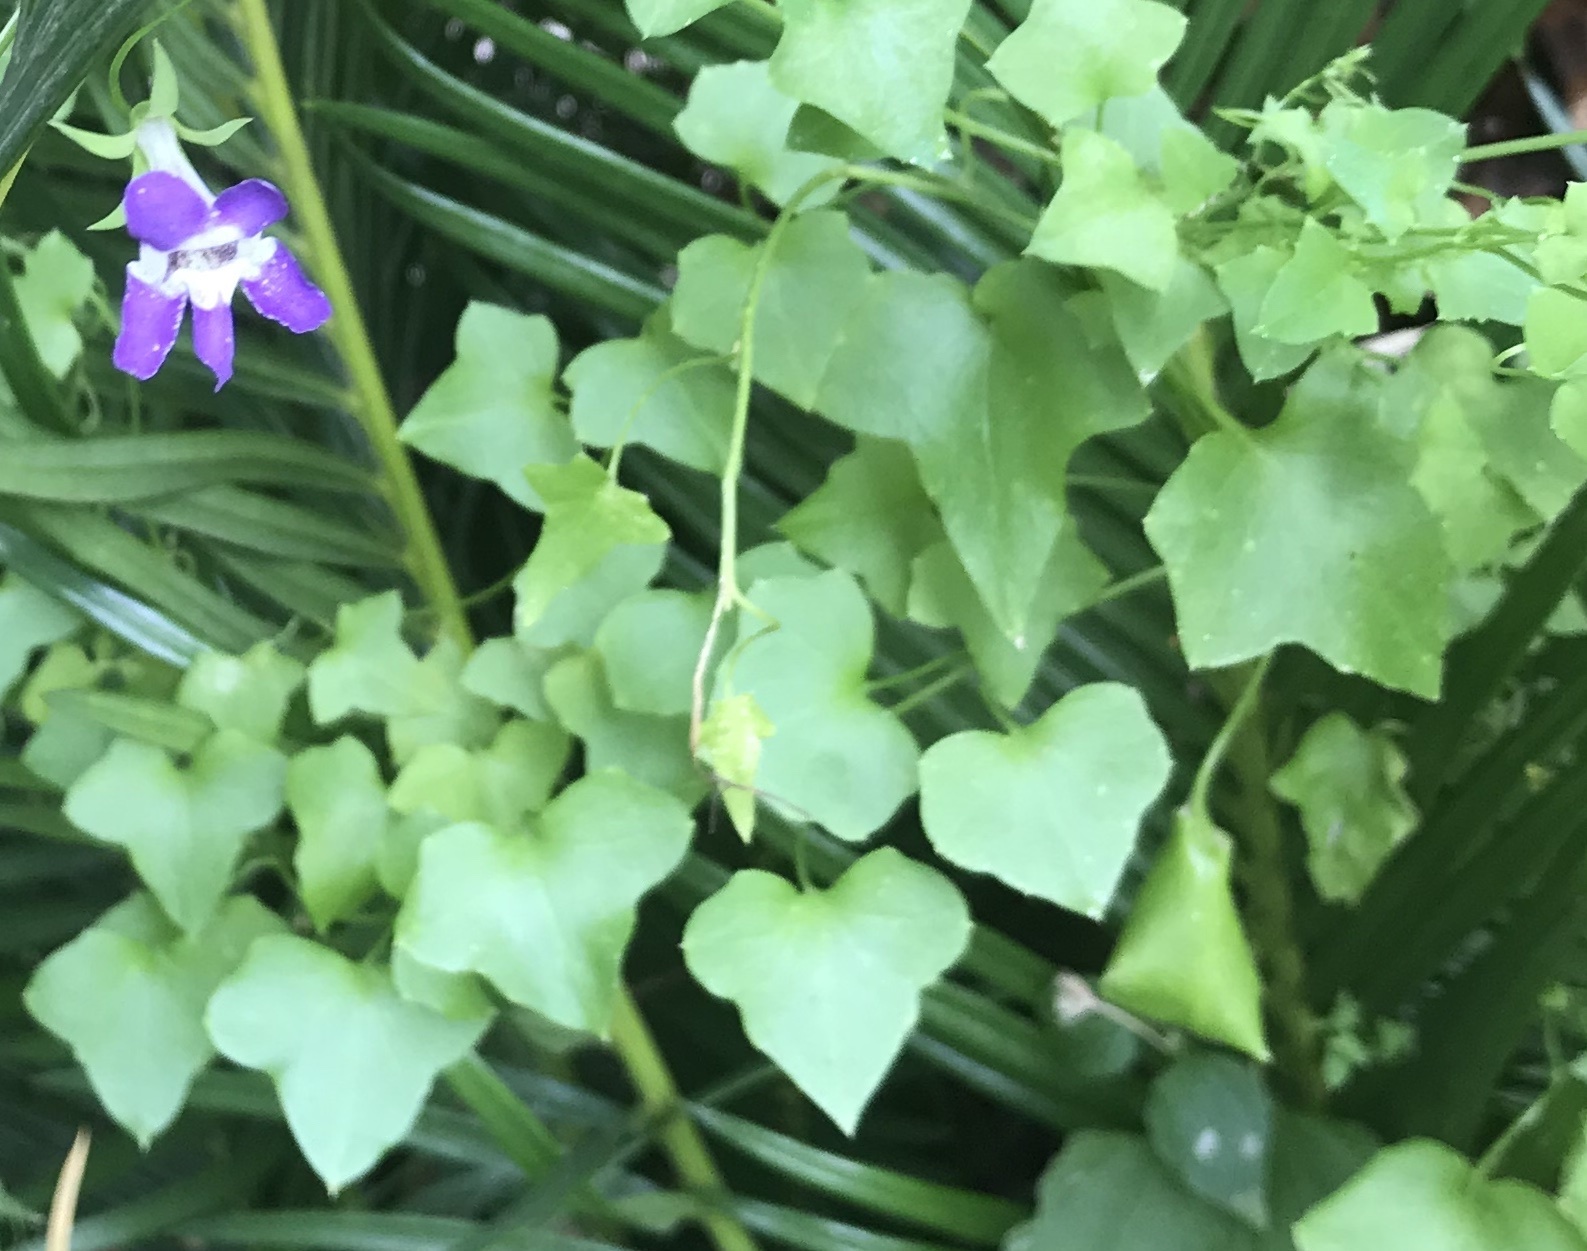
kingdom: Plantae
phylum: Tracheophyta
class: Magnoliopsida
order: Lamiales
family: Plantaginaceae
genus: Maurandella
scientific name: Maurandella antirrhiniflora
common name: Violet twining-snapdragon
